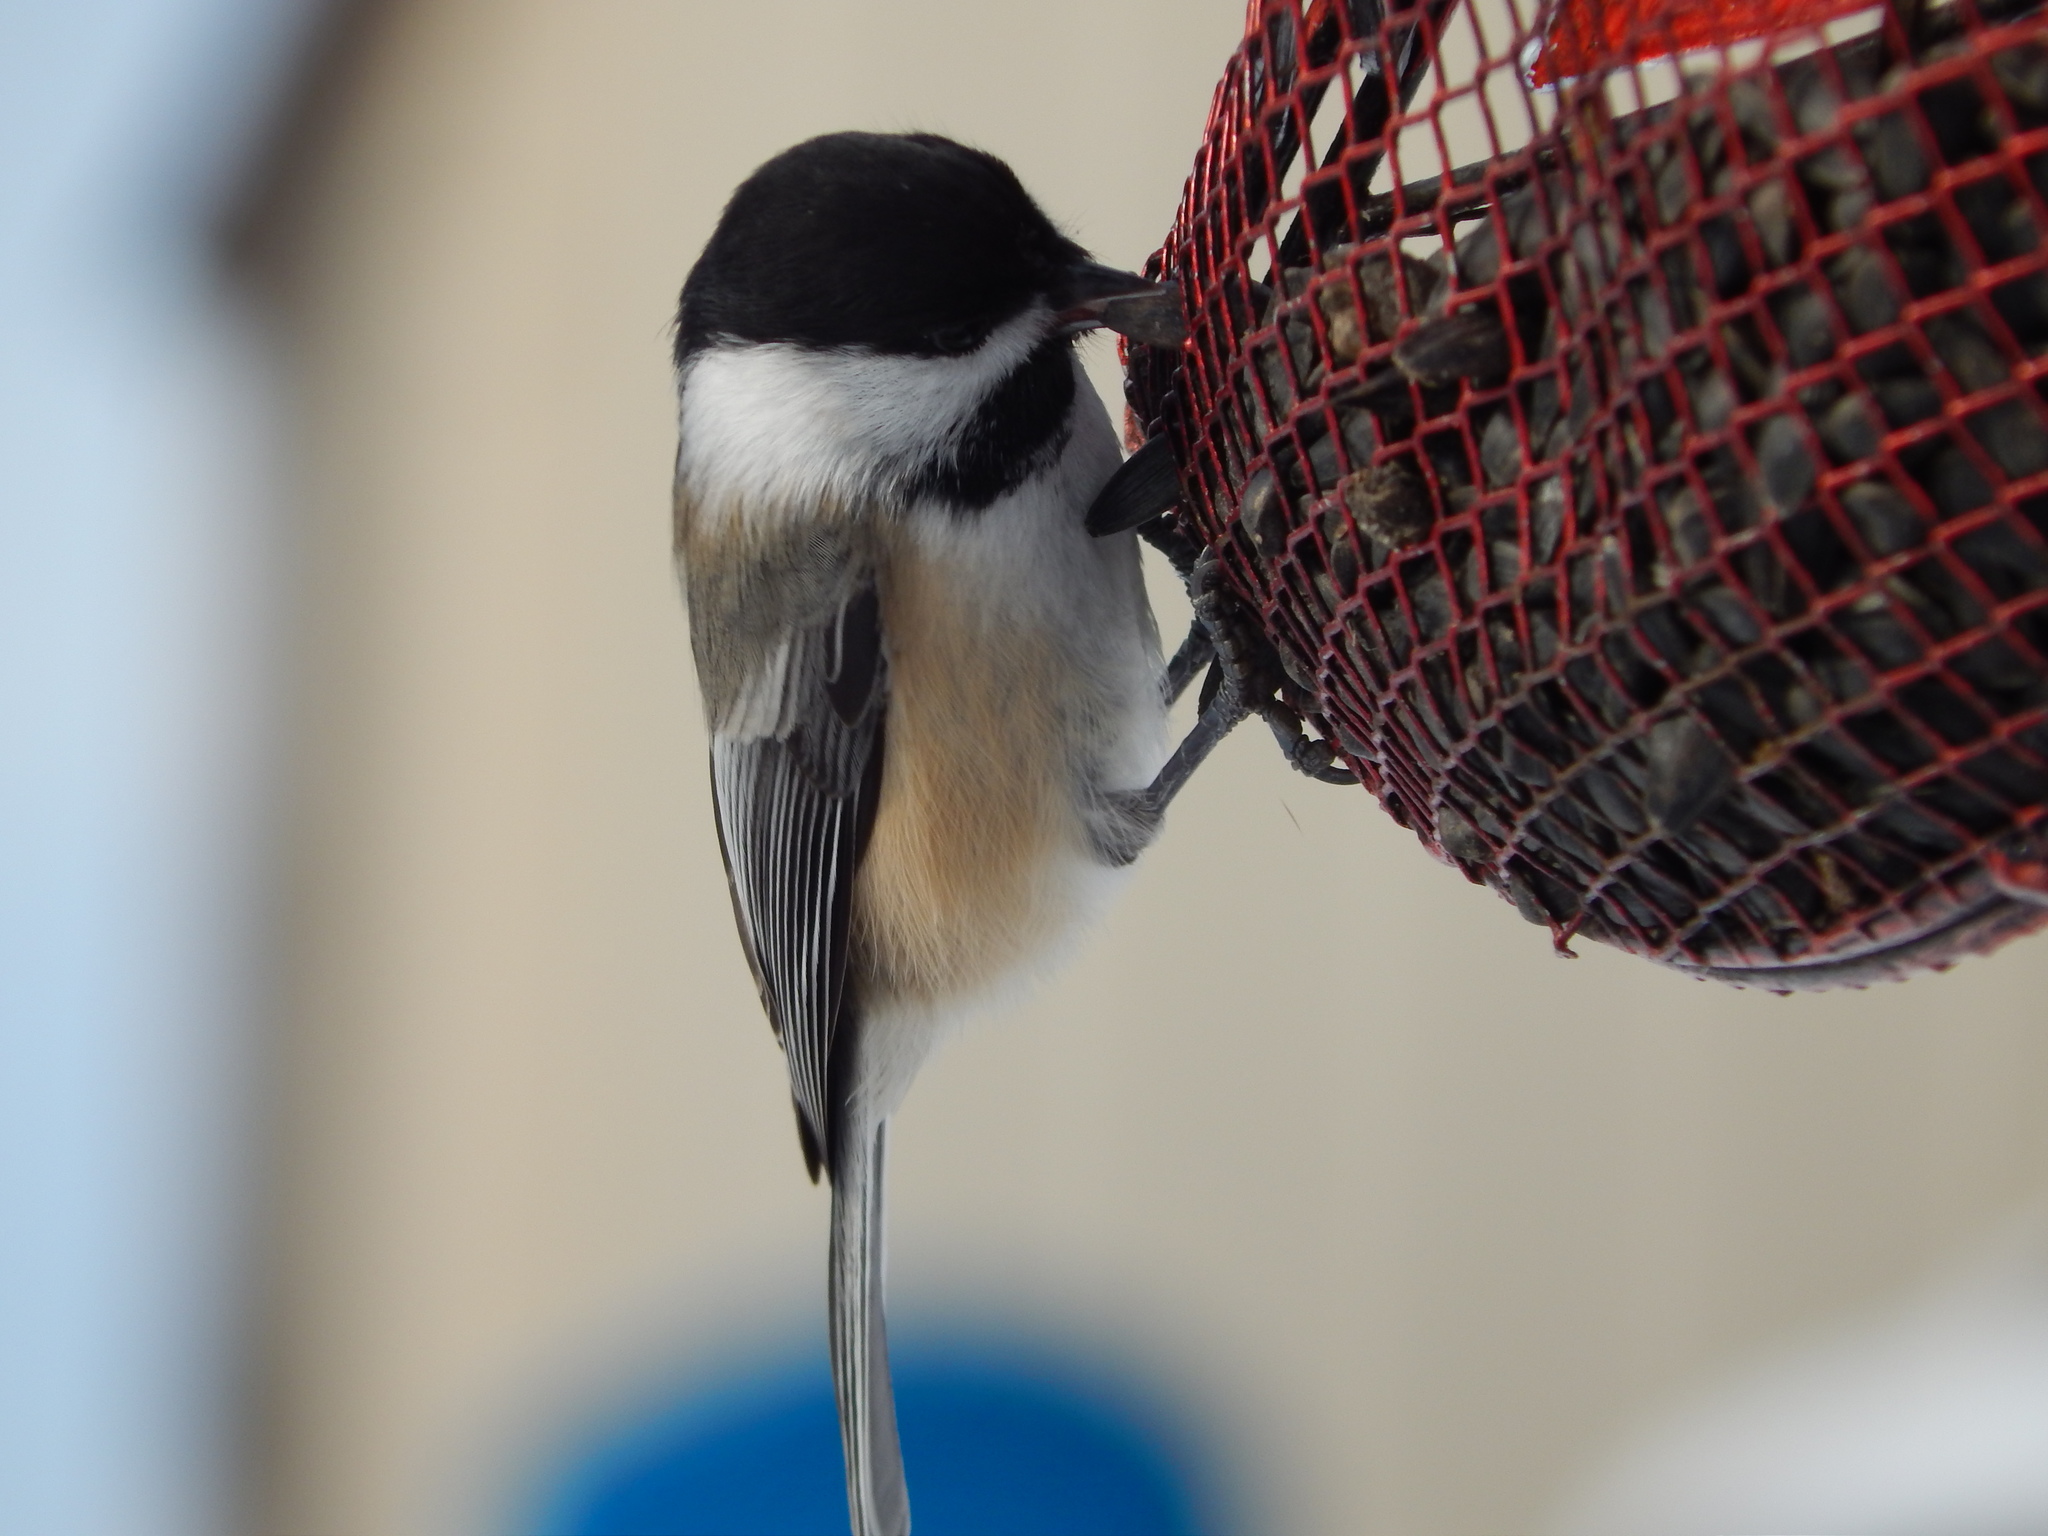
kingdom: Animalia
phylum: Chordata
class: Aves
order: Passeriformes
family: Paridae
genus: Poecile
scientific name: Poecile atricapillus
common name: Black-capped chickadee
